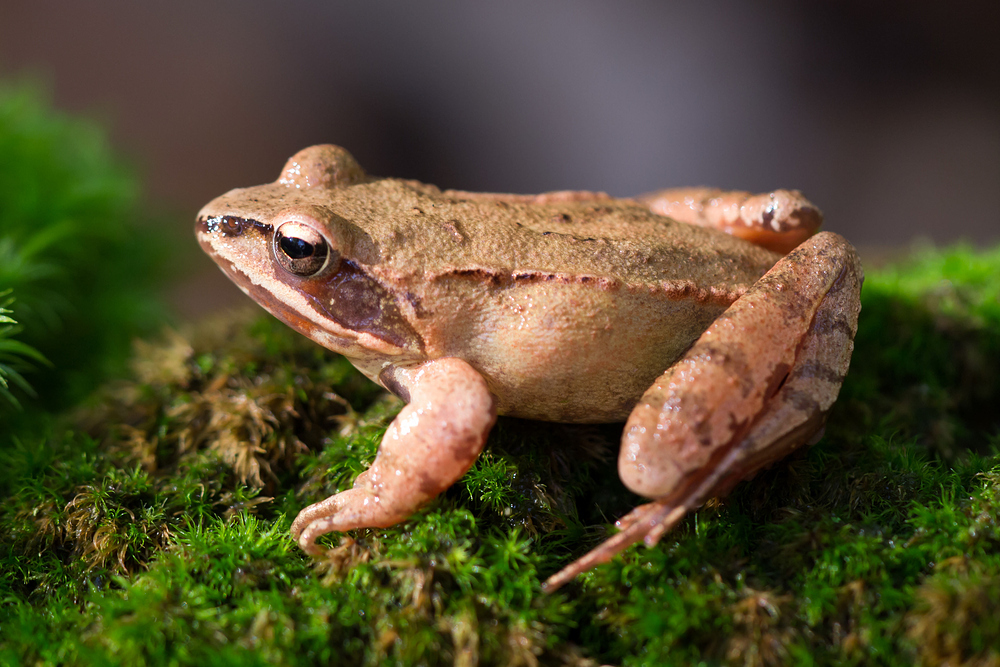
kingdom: Animalia
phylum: Chordata
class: Amphibia
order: Anura
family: Ranidae
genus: Rana
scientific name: Rana dalmatina
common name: Agile frog
